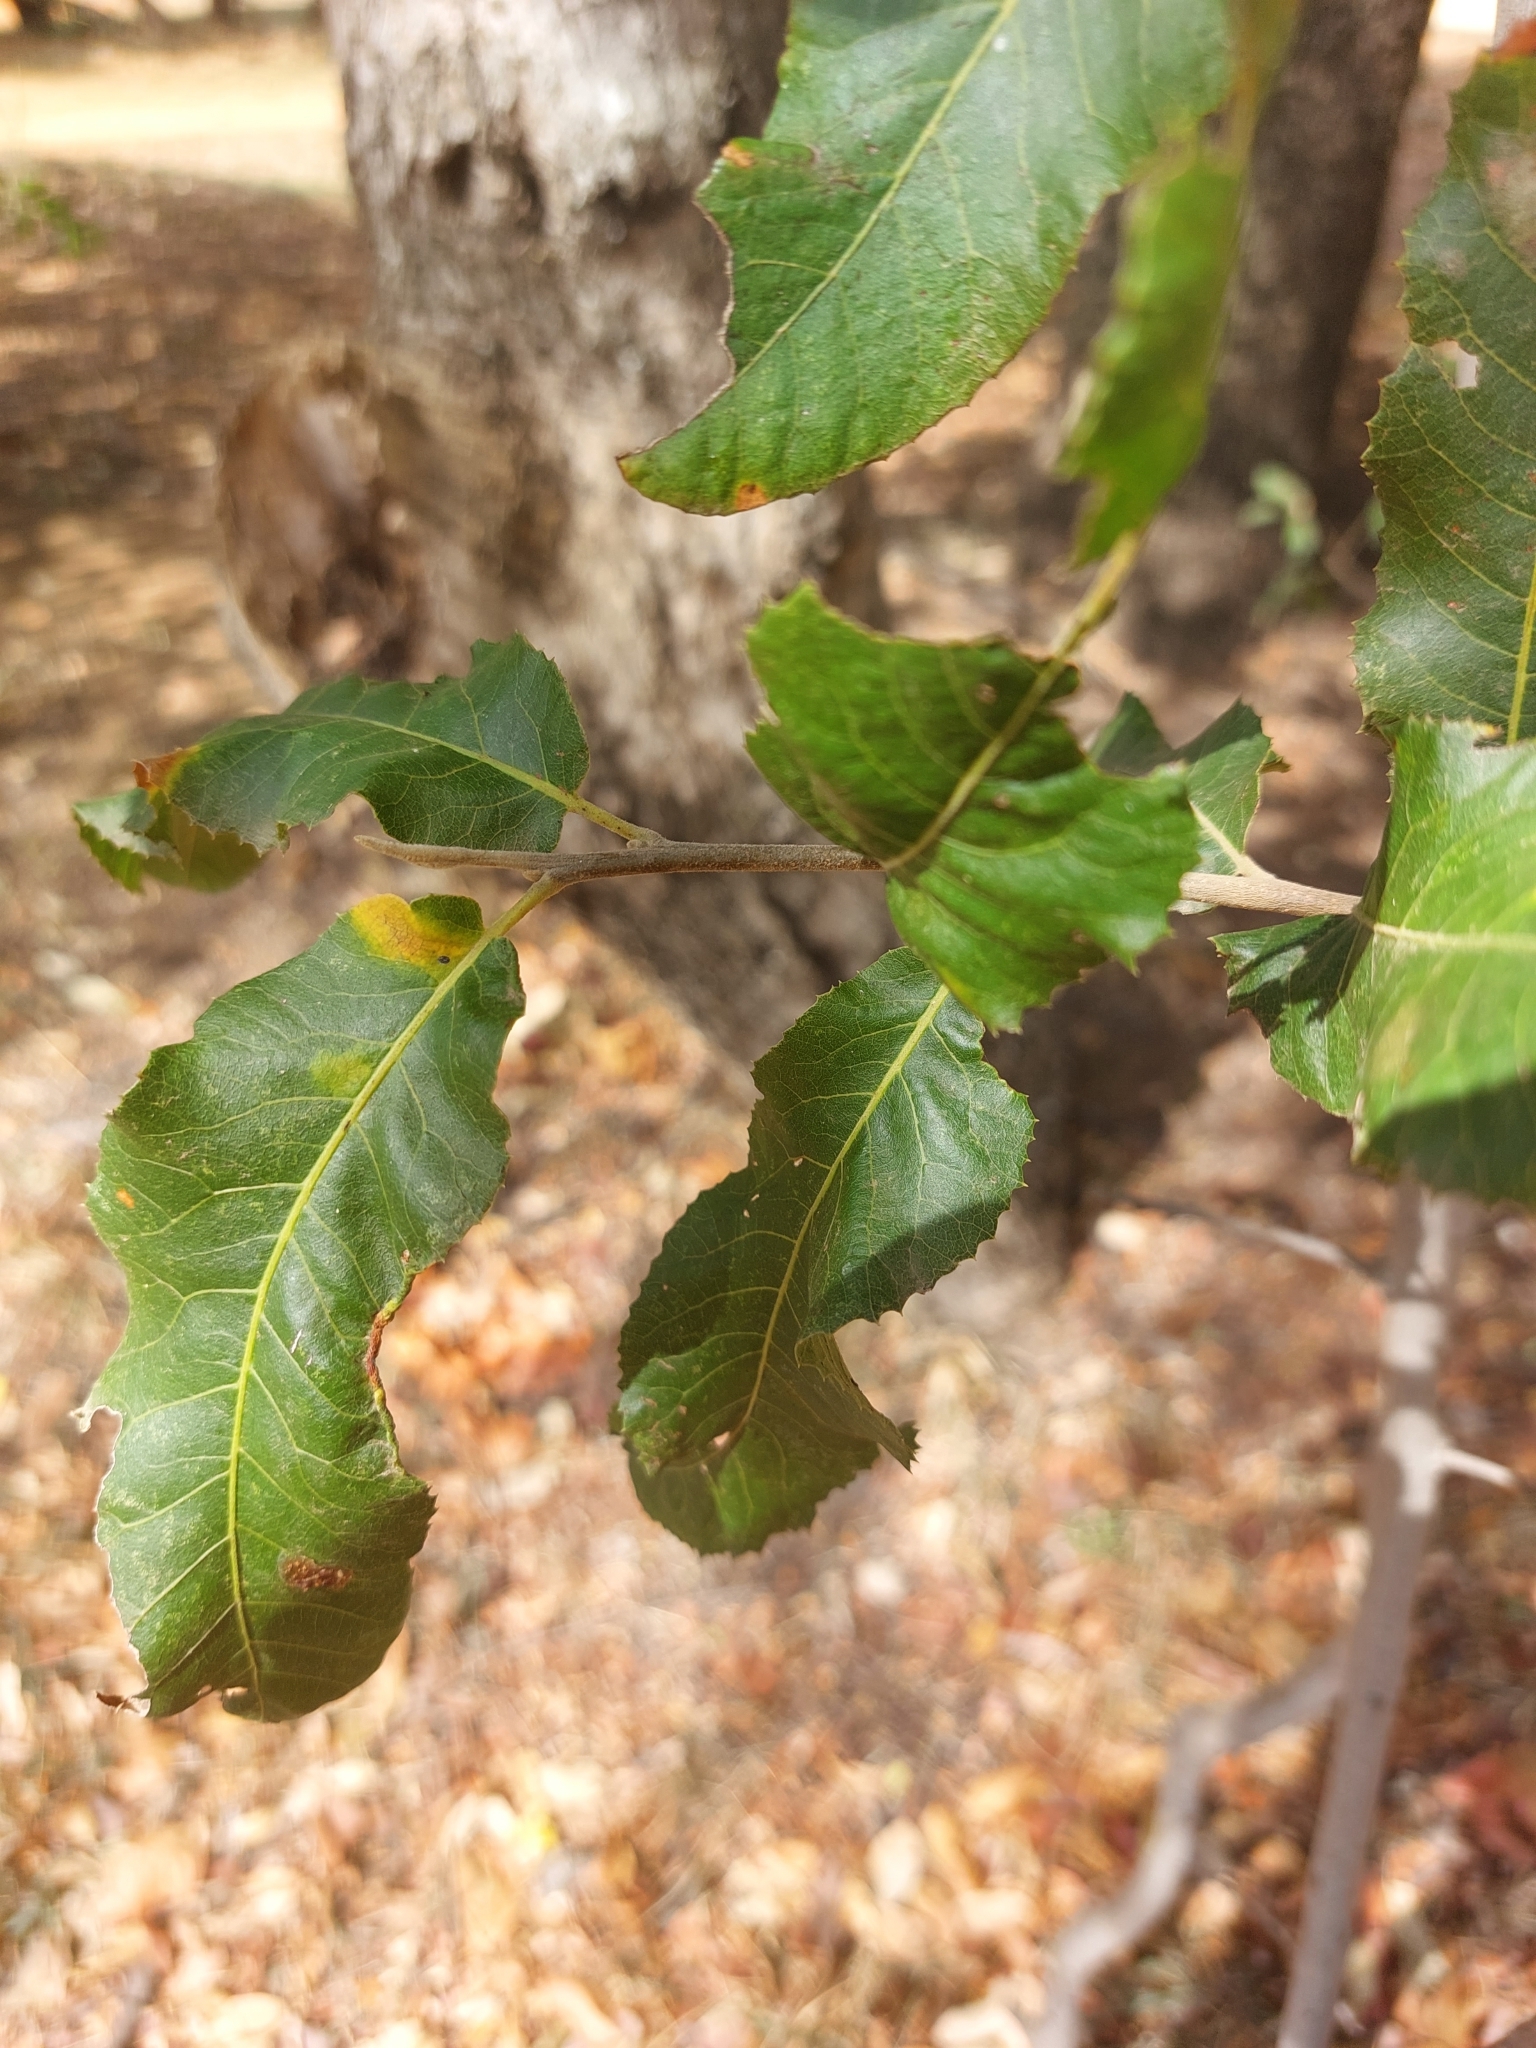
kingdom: Plantae
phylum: Tracheophyta
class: Magnoliopsida
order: Sapindales
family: Sapindaceae
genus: Pappea
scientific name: Pappea capensis
